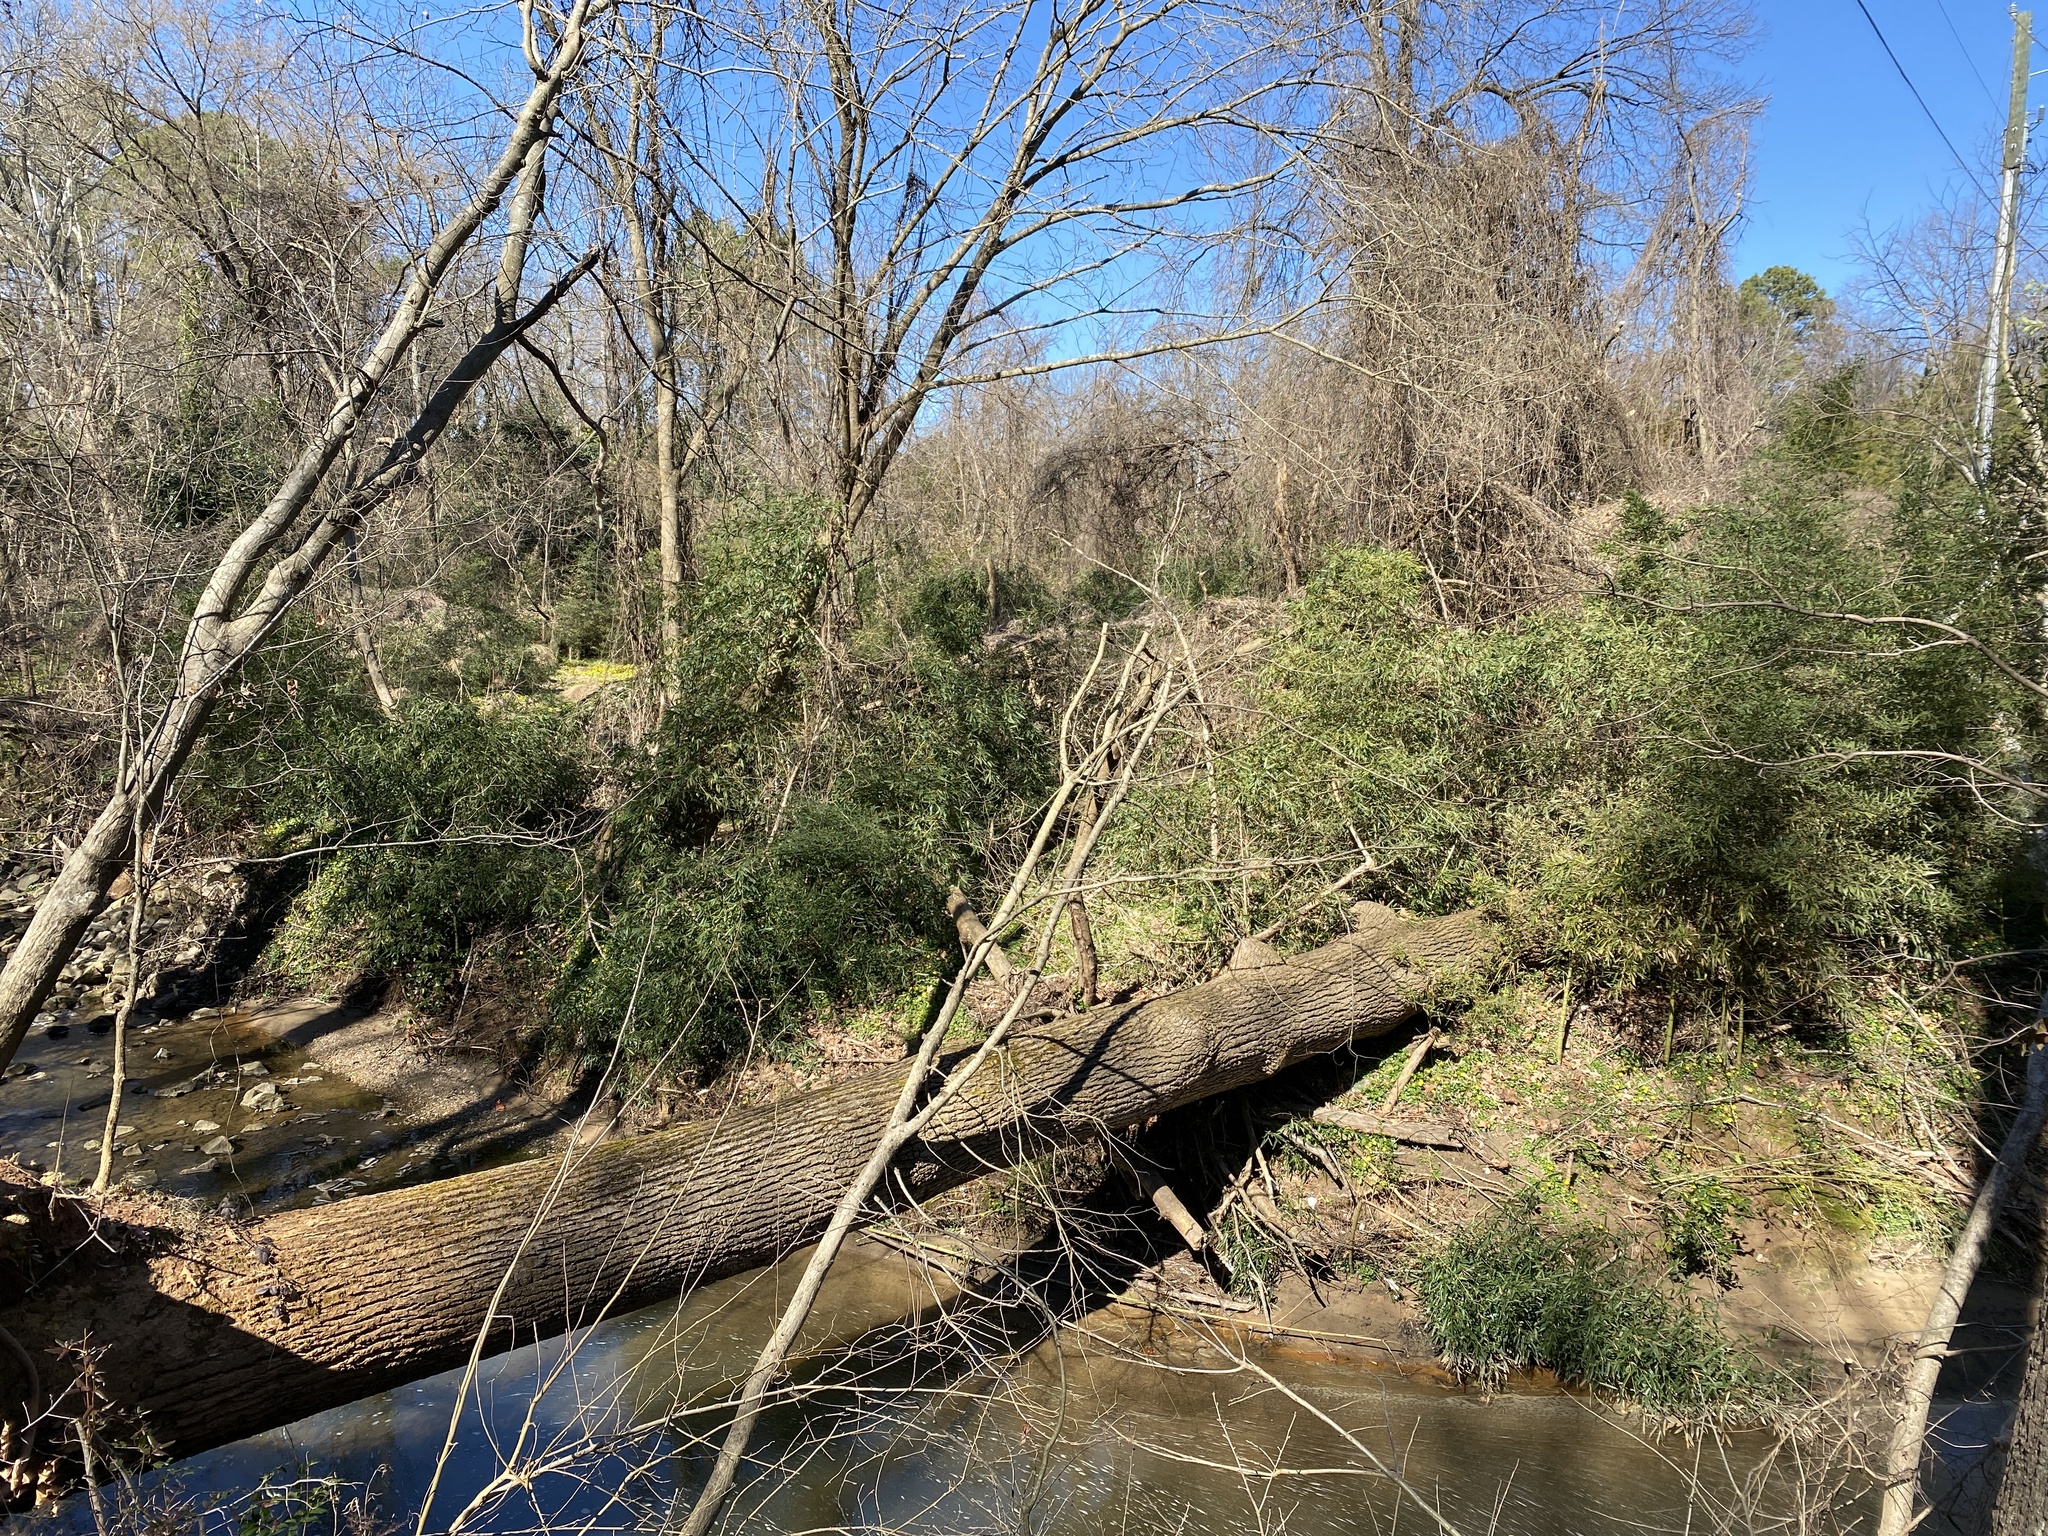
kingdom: Plantae
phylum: Tracheophyta
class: Magnoliopsida
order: Ranunculales
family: Ranunculaceae
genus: Ficaria
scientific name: Ficaria verna
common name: Lesser celandine
